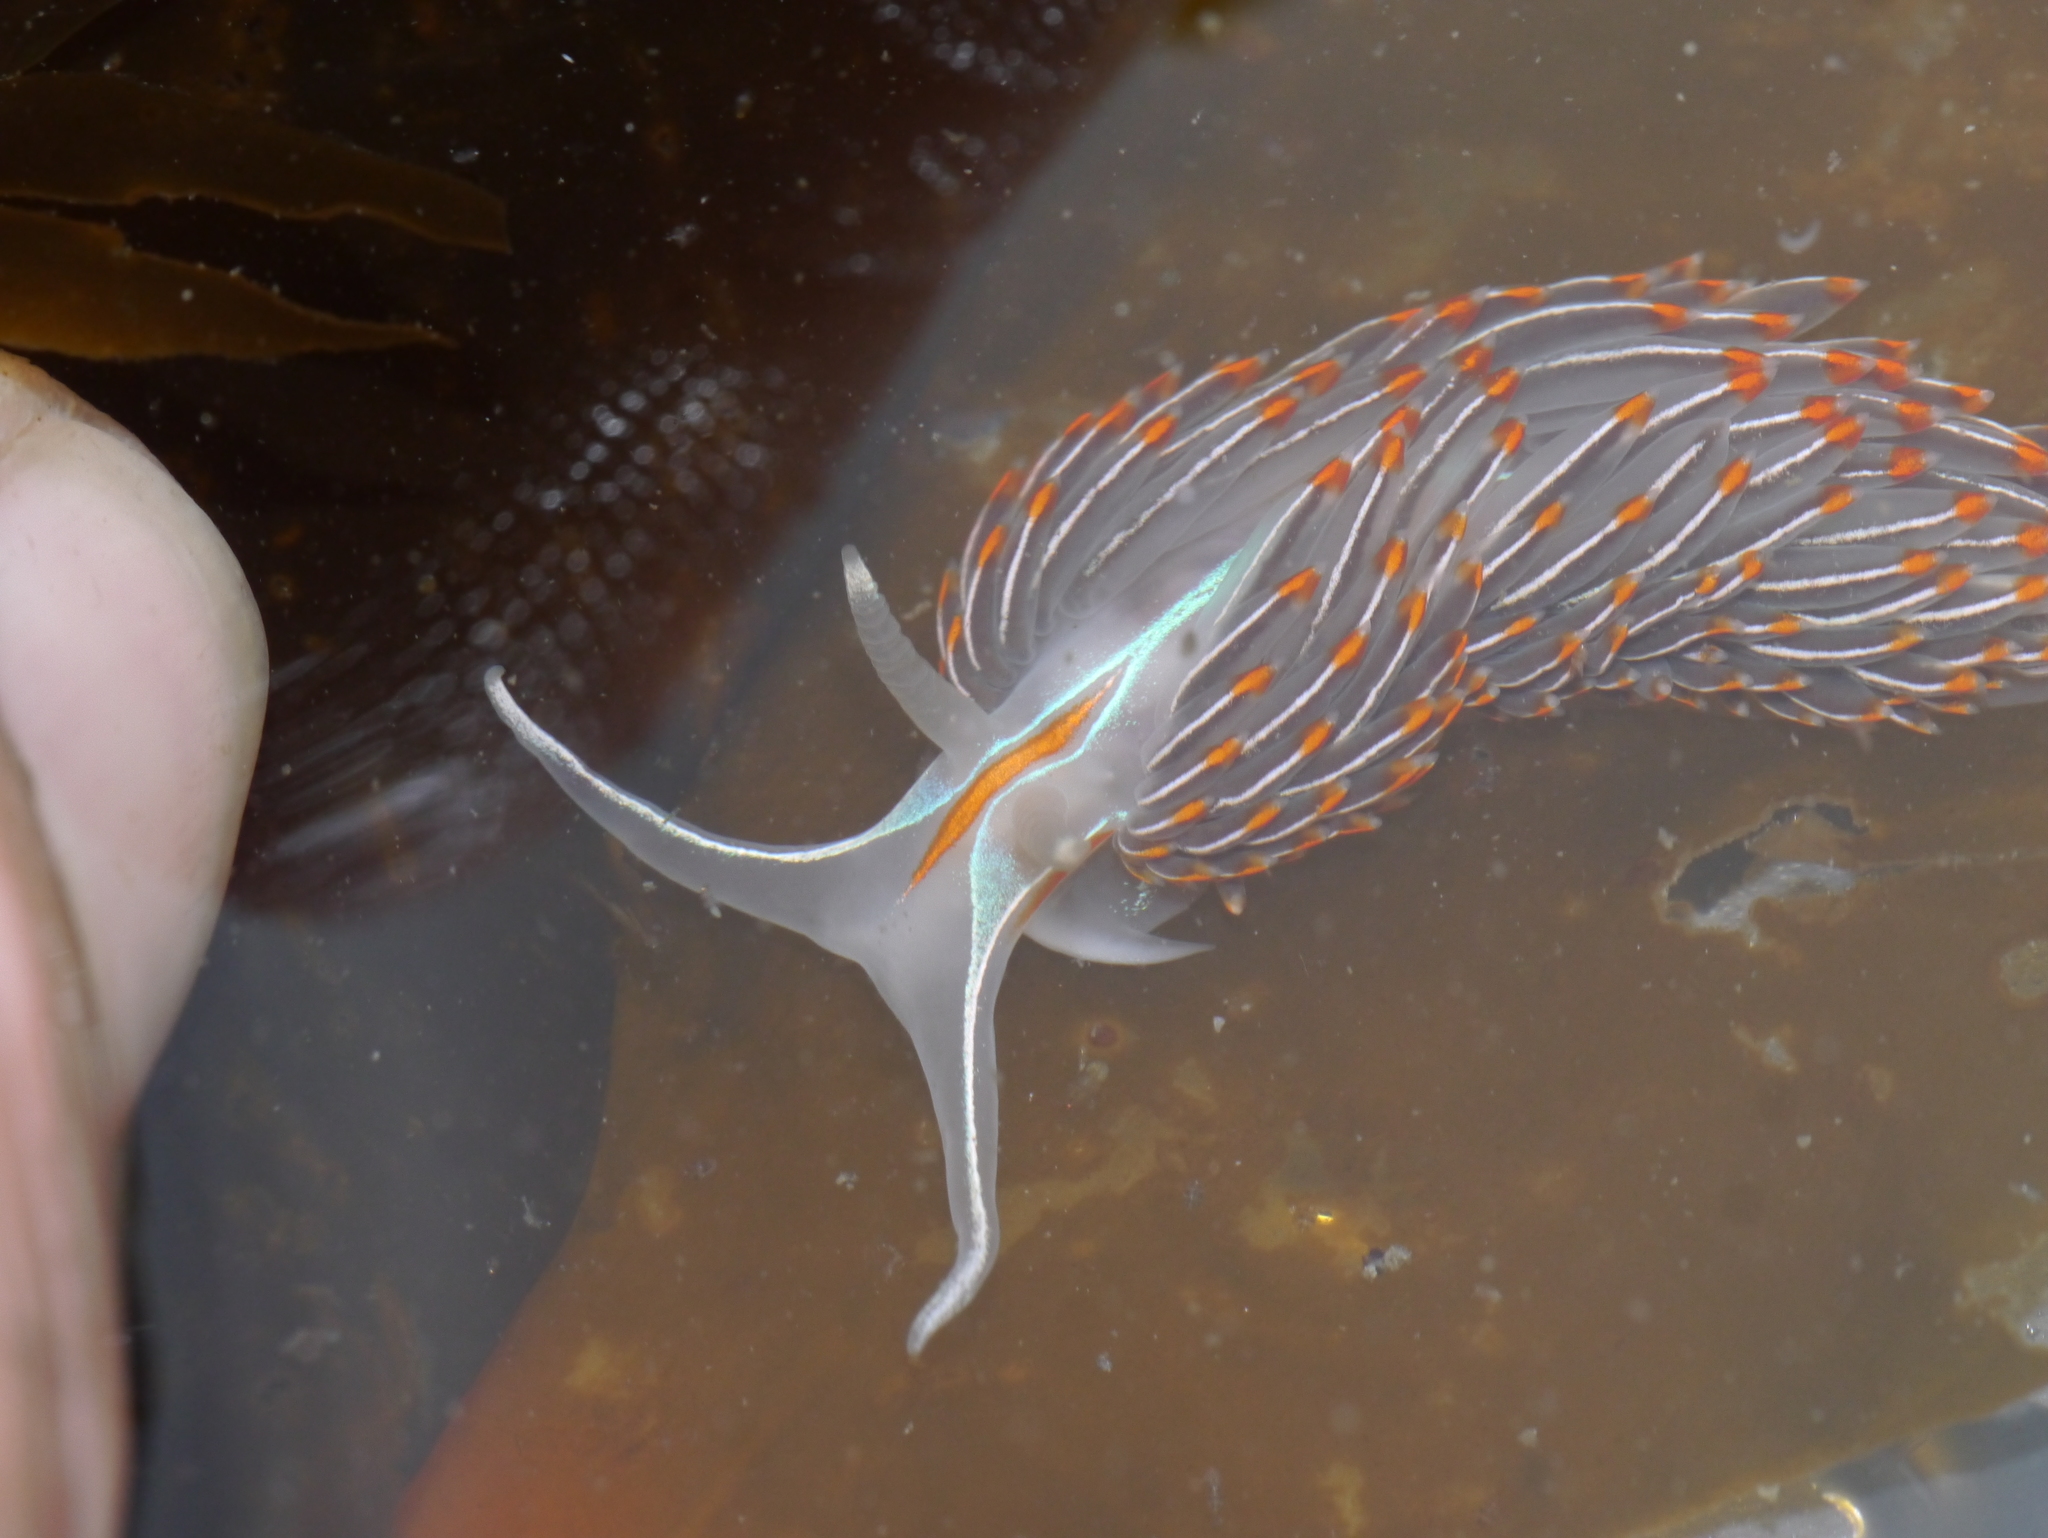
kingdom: Animalia
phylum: Mollusca
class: Gastropoda
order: Nudibranchia
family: Myrrhinidae
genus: Hermissenda
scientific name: Hermissenda crassicornis
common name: Hermissenda
